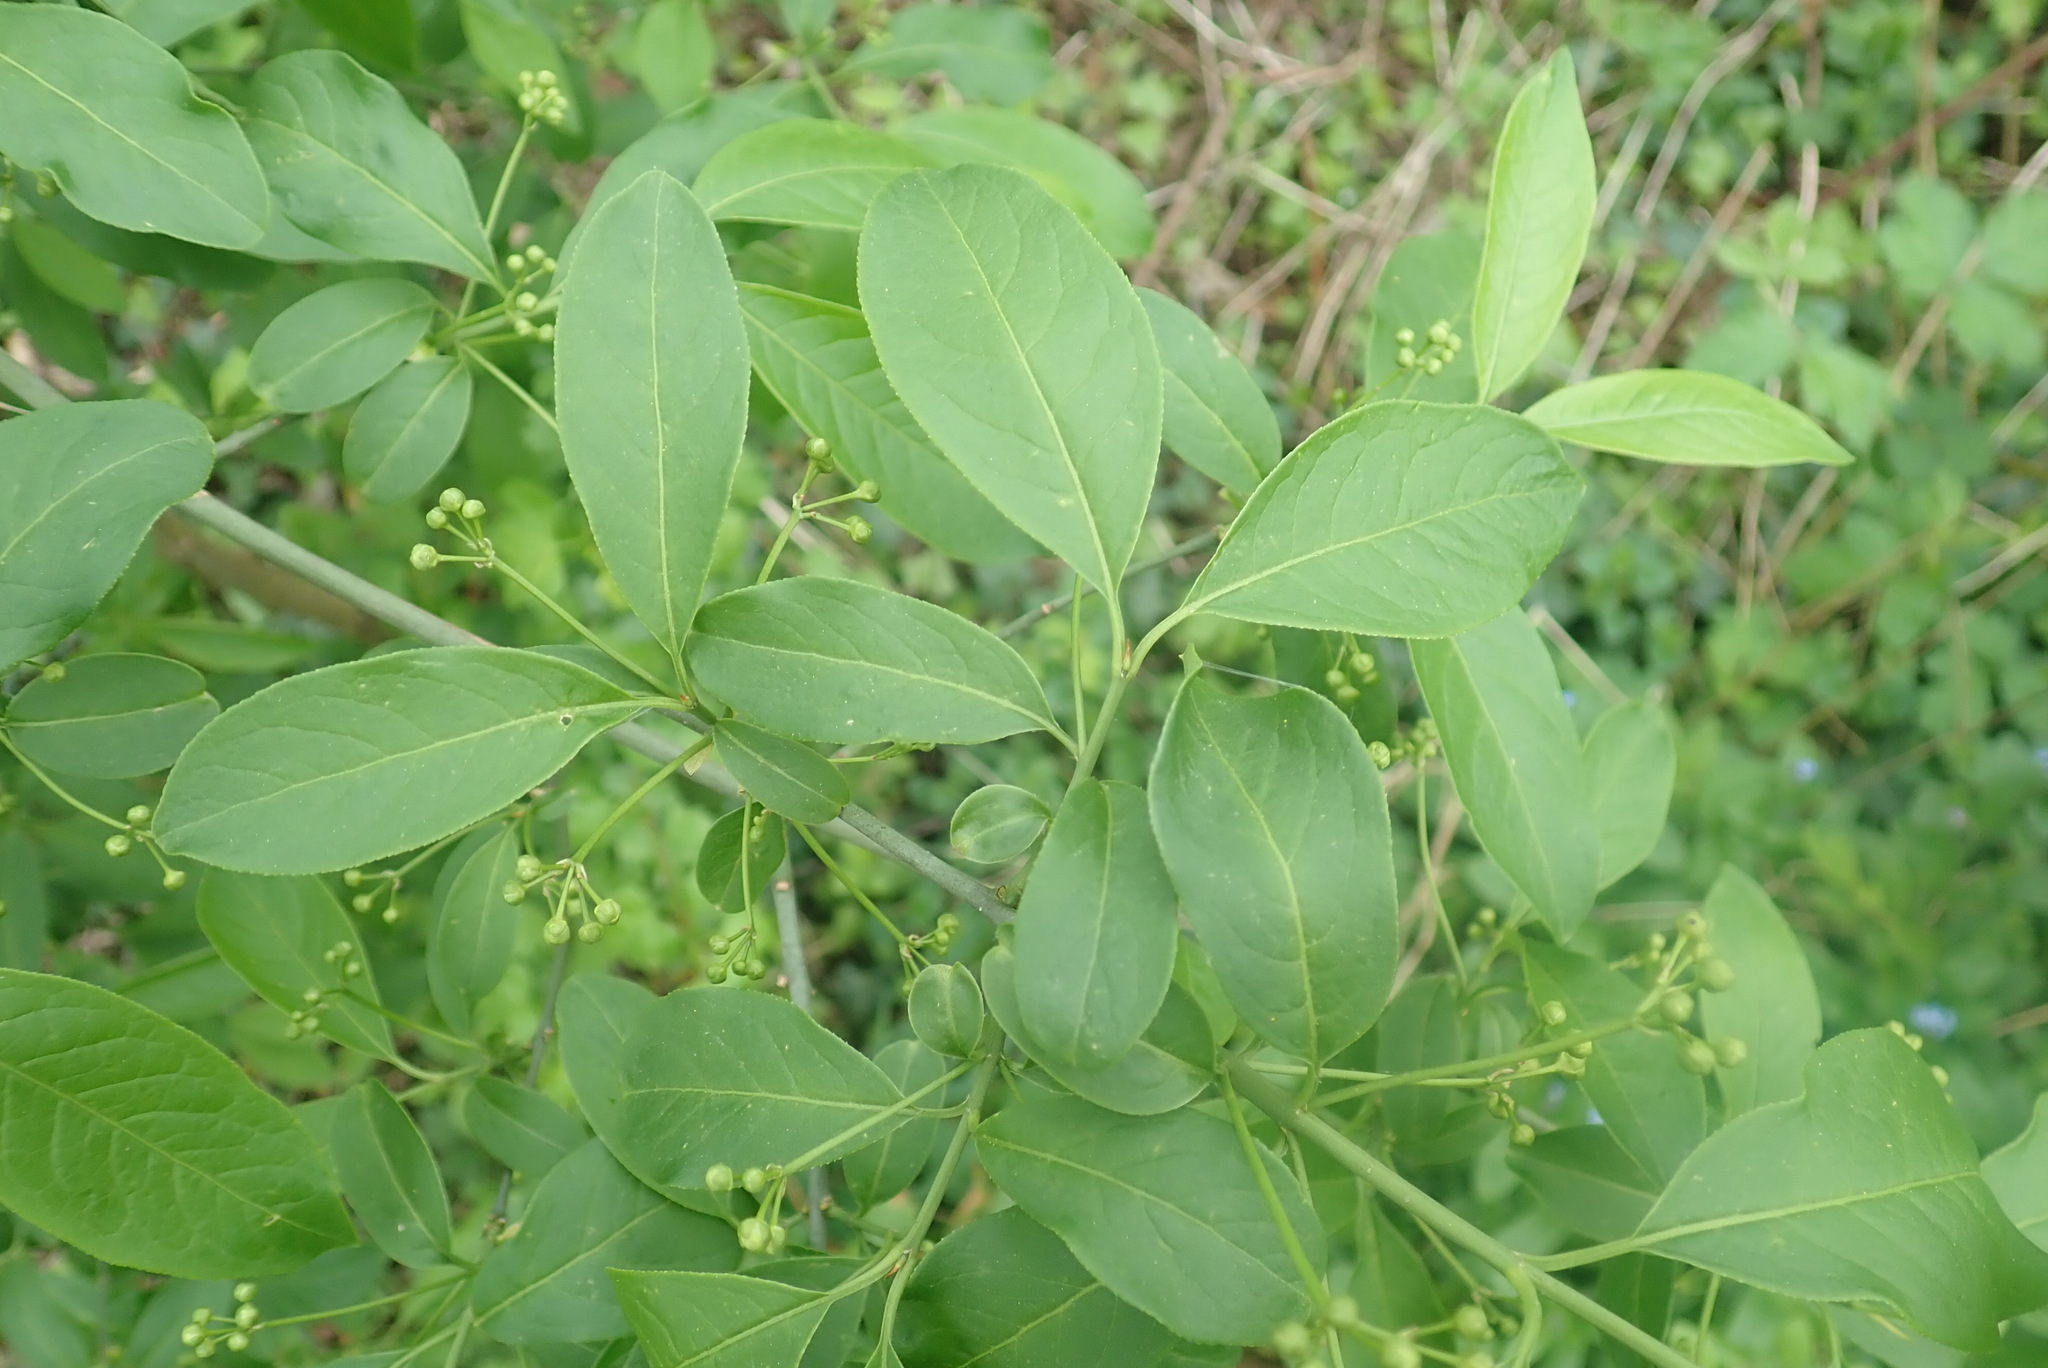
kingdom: Plantae
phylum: Tracheophyta
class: Magnoliopsida
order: Celastrales
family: Celastraceae
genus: Euonymus
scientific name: Euonymus europaeus
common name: Spindle
